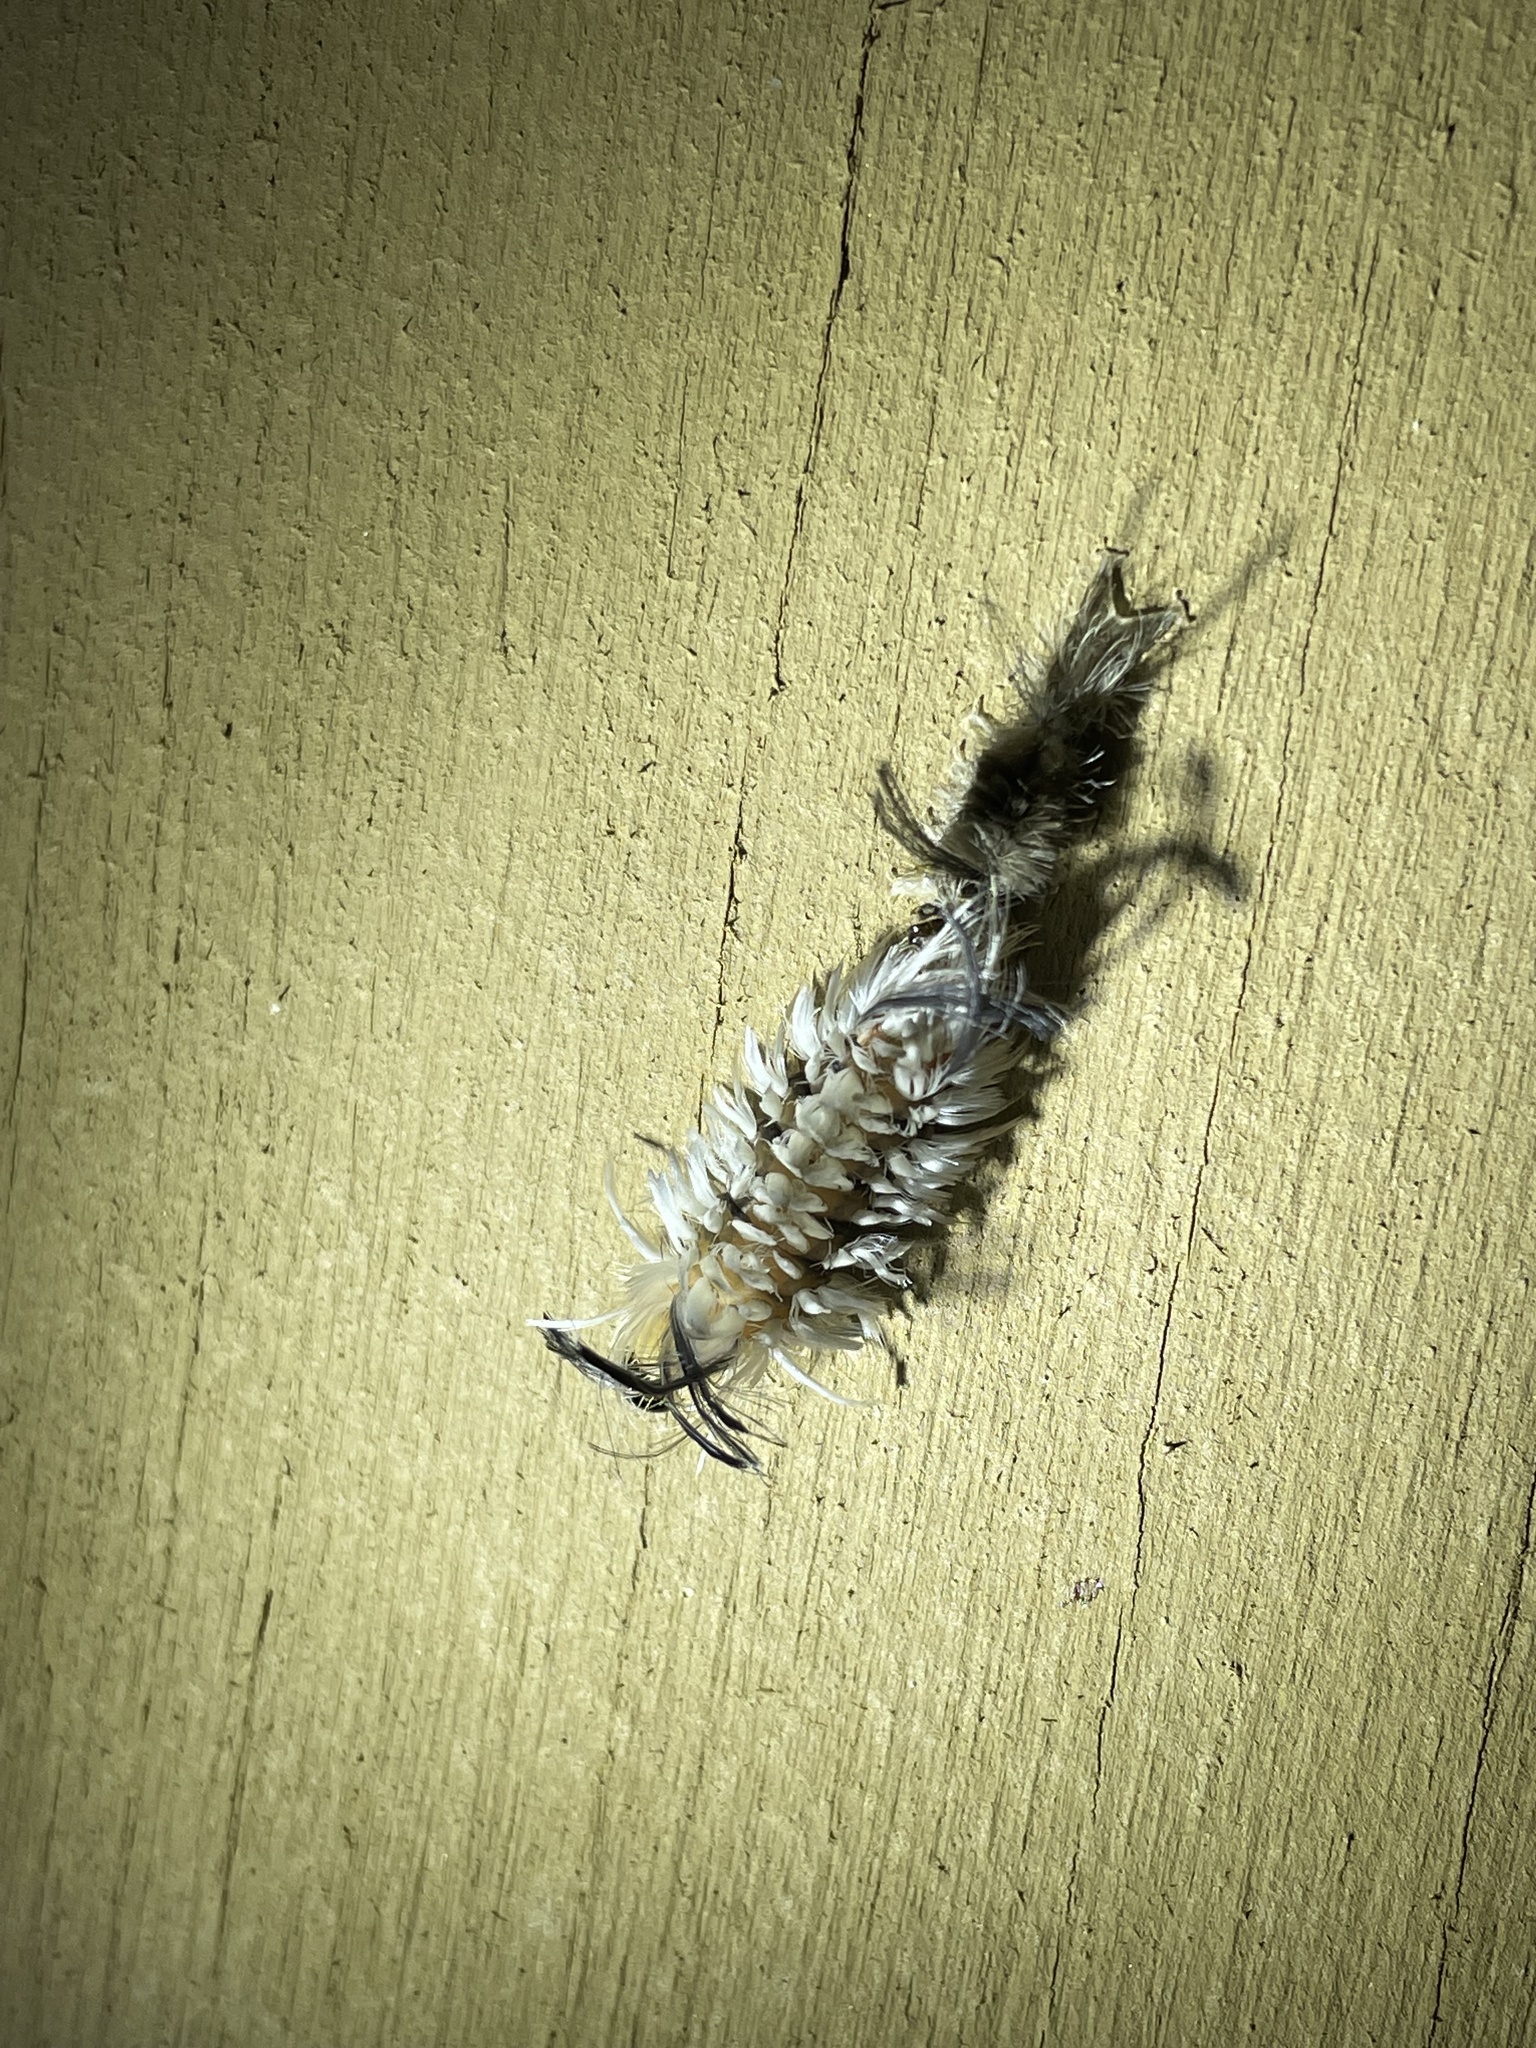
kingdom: Animalia
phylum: Arthropoda
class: Insecta
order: Lepidoptera
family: Erebidae
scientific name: Erebidae
